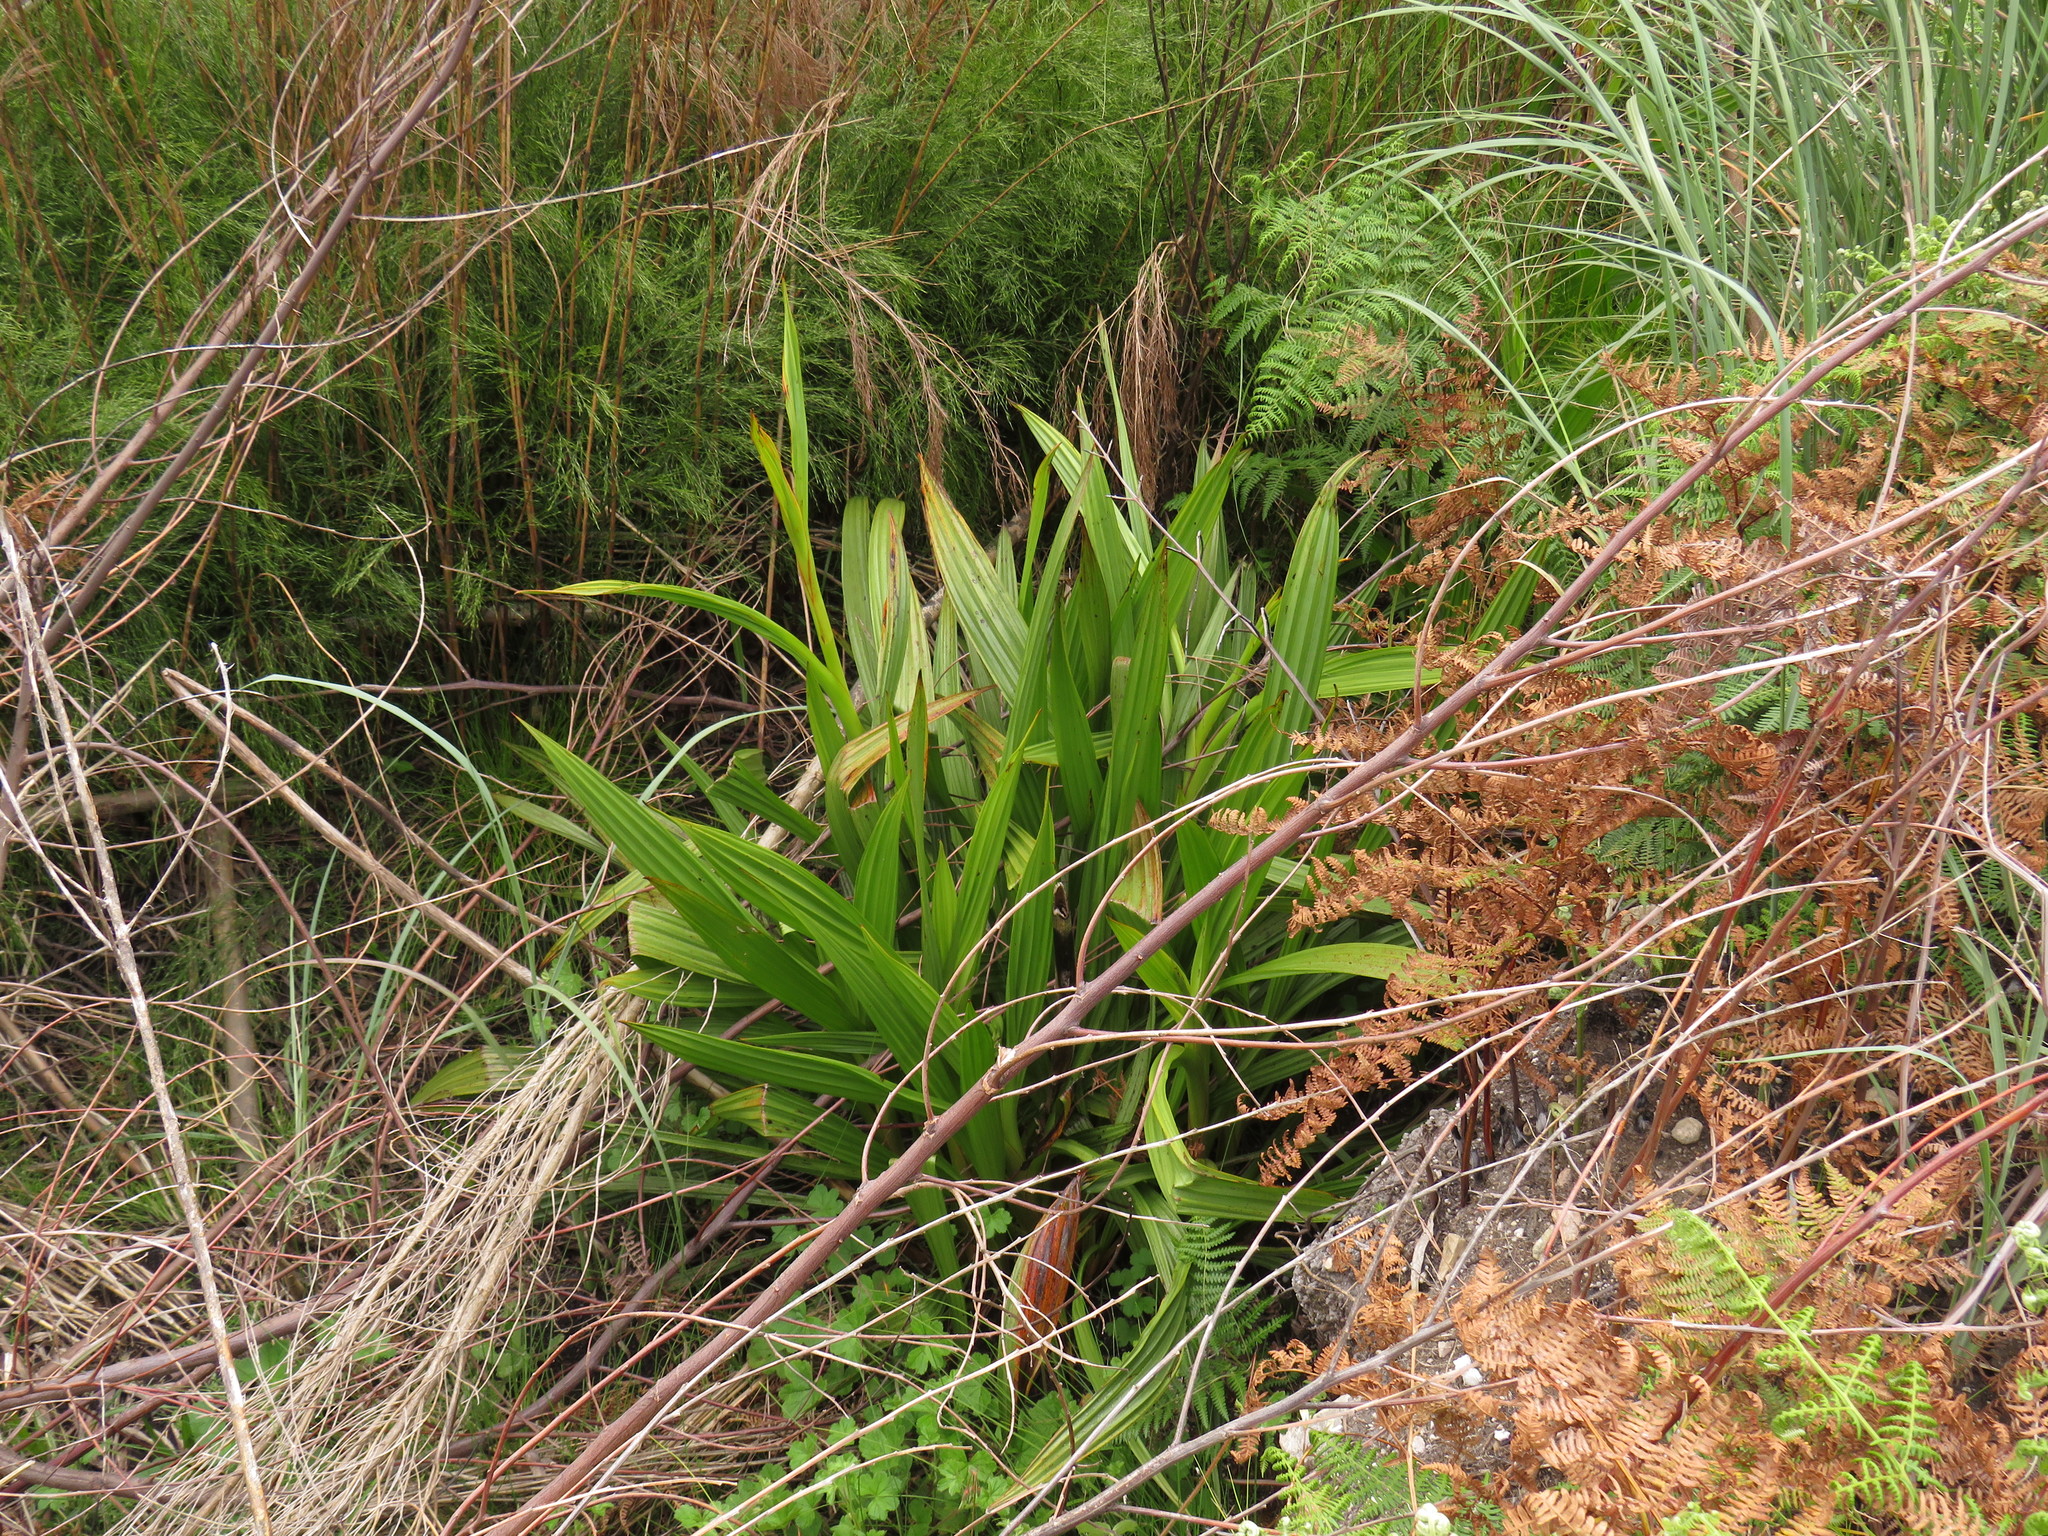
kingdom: Plantae
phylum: Tracheophyta
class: Liliopsida
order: Commelinales
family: Haemodoraceae
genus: Wachendorfia
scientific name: Wachendorfia thyrsiflora
